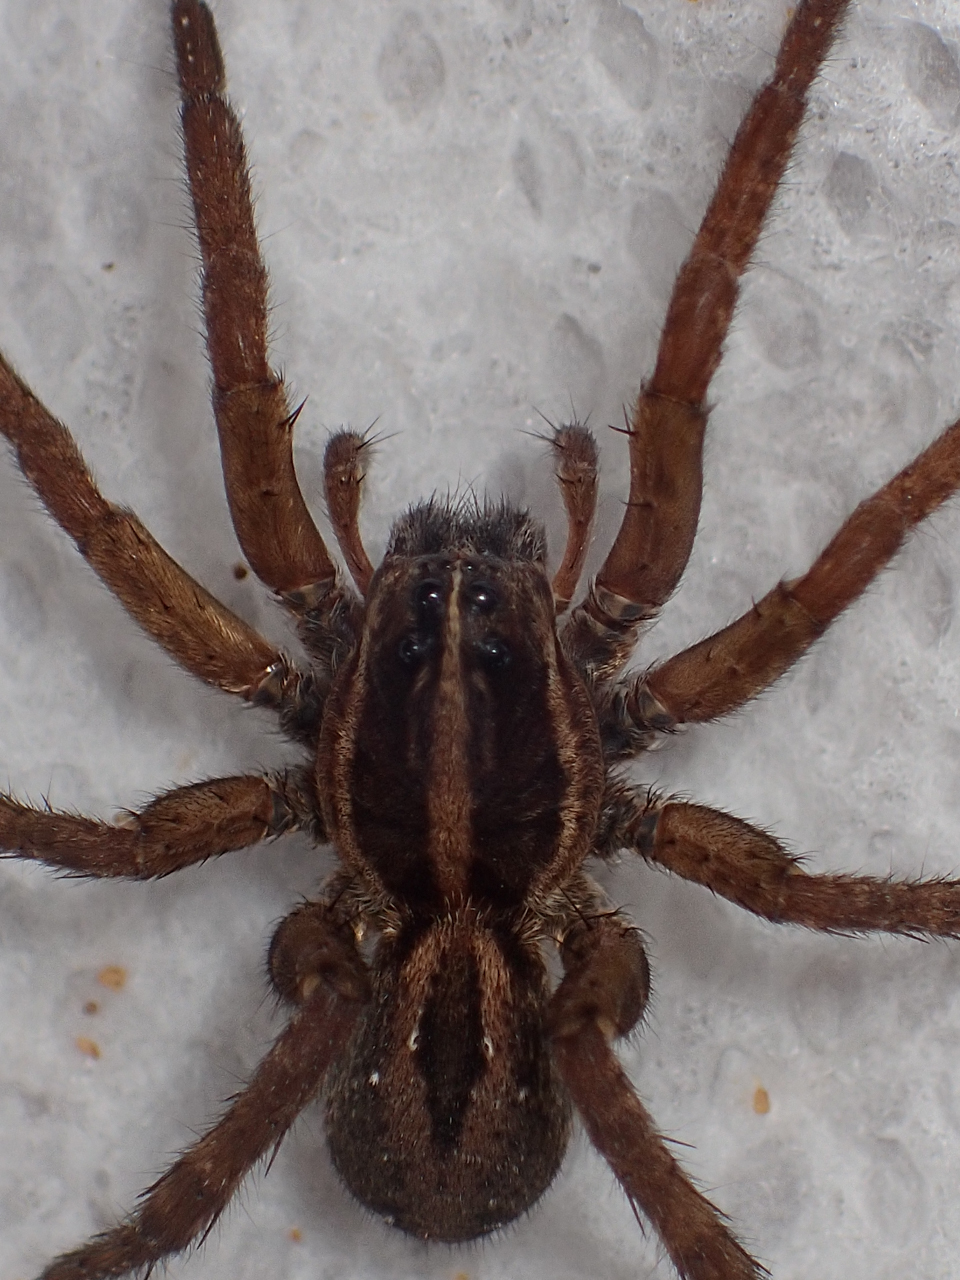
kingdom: Animalia
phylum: Arthropoda
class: Arachnida
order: Araneae
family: Lycosidae
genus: Tigrosa
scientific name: Tigrosa annexa
